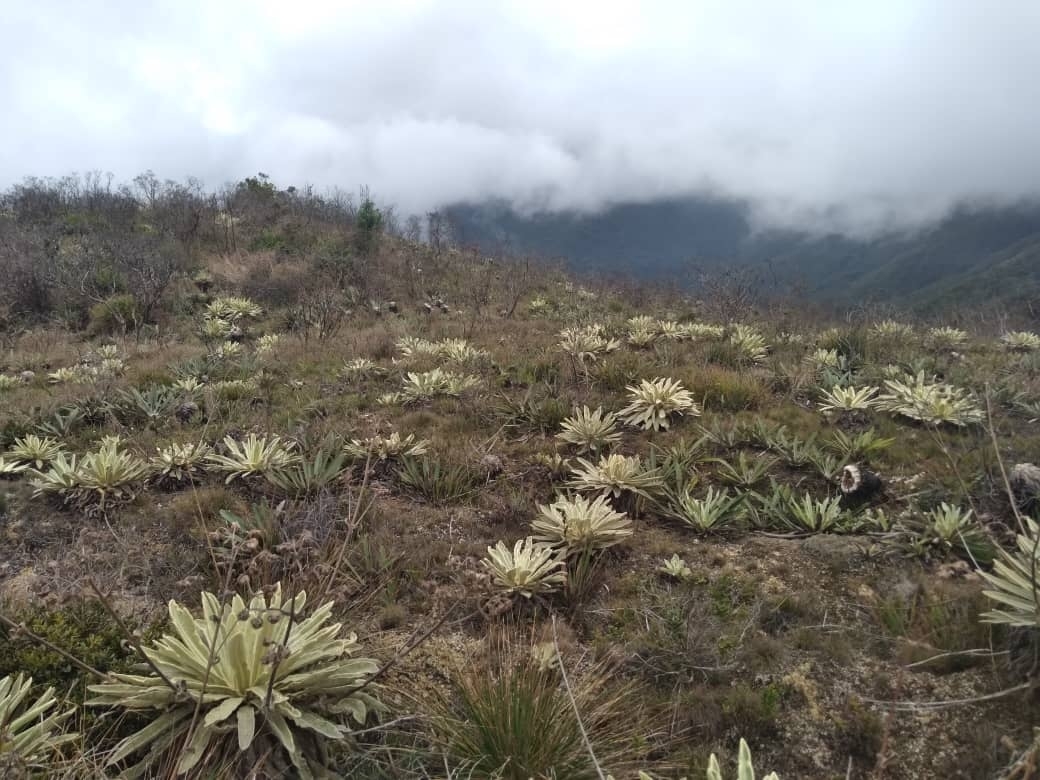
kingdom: Plantae
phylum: Tracheophyta
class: Magnoliopsida
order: Asterales
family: Asteraceae
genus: Espeletia
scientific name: Espeletia aristeguietana
